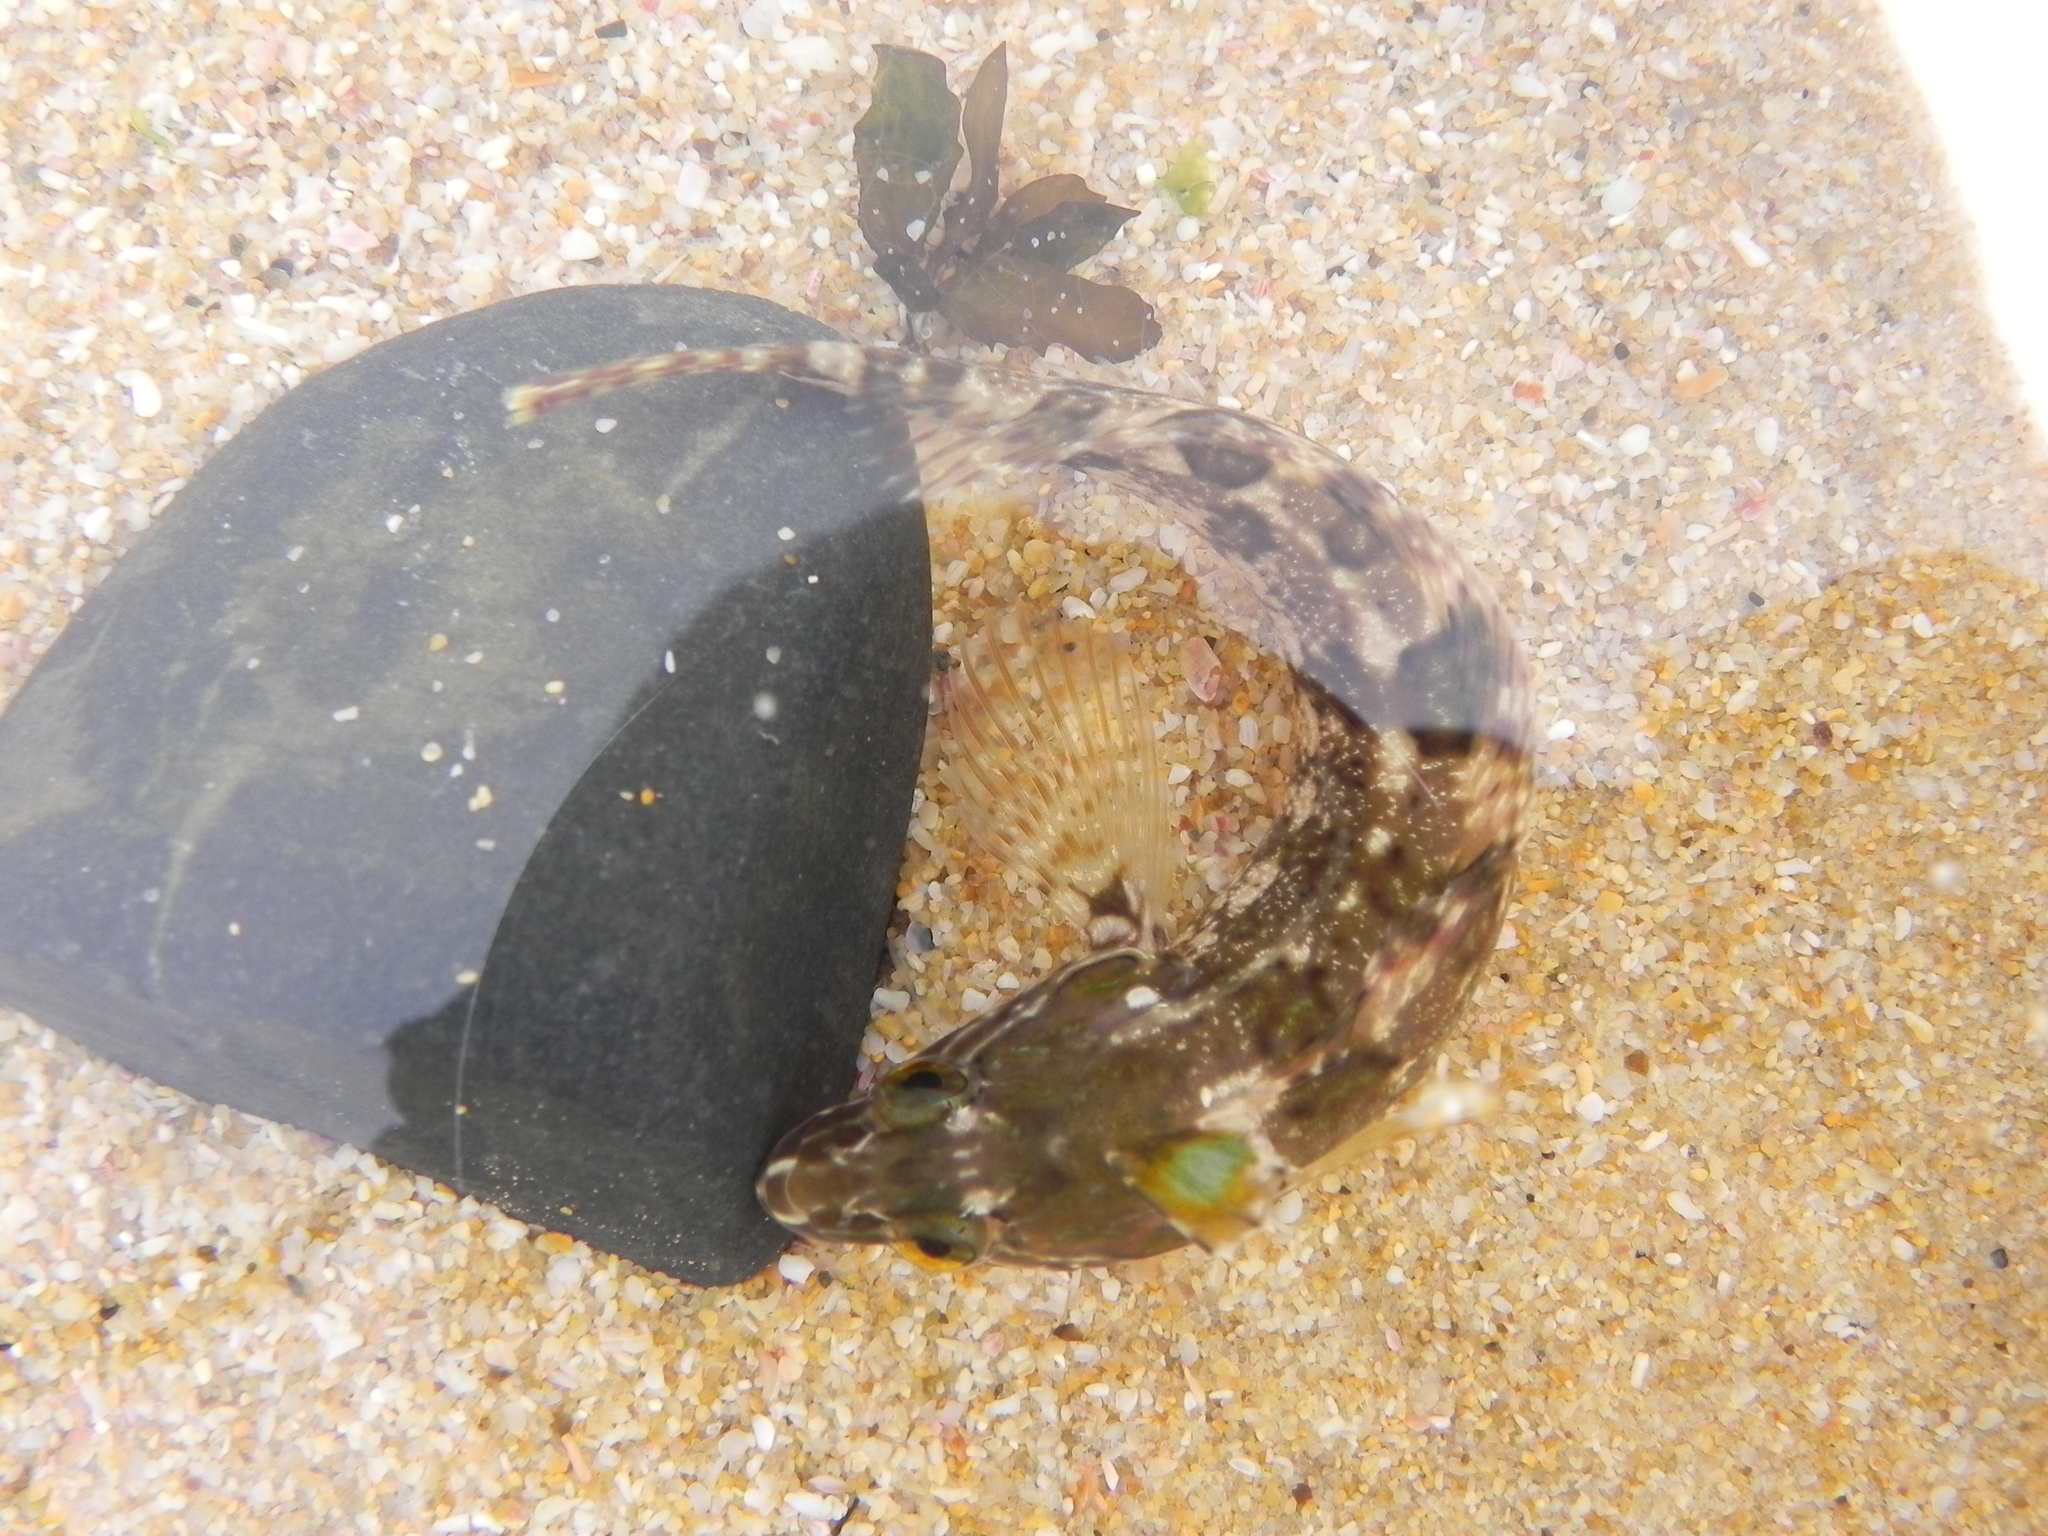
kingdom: Animalia
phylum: Chordata
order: Perciformes
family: Clinidae
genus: Clinus
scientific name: Clinus superciliosus
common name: Super klipfish
